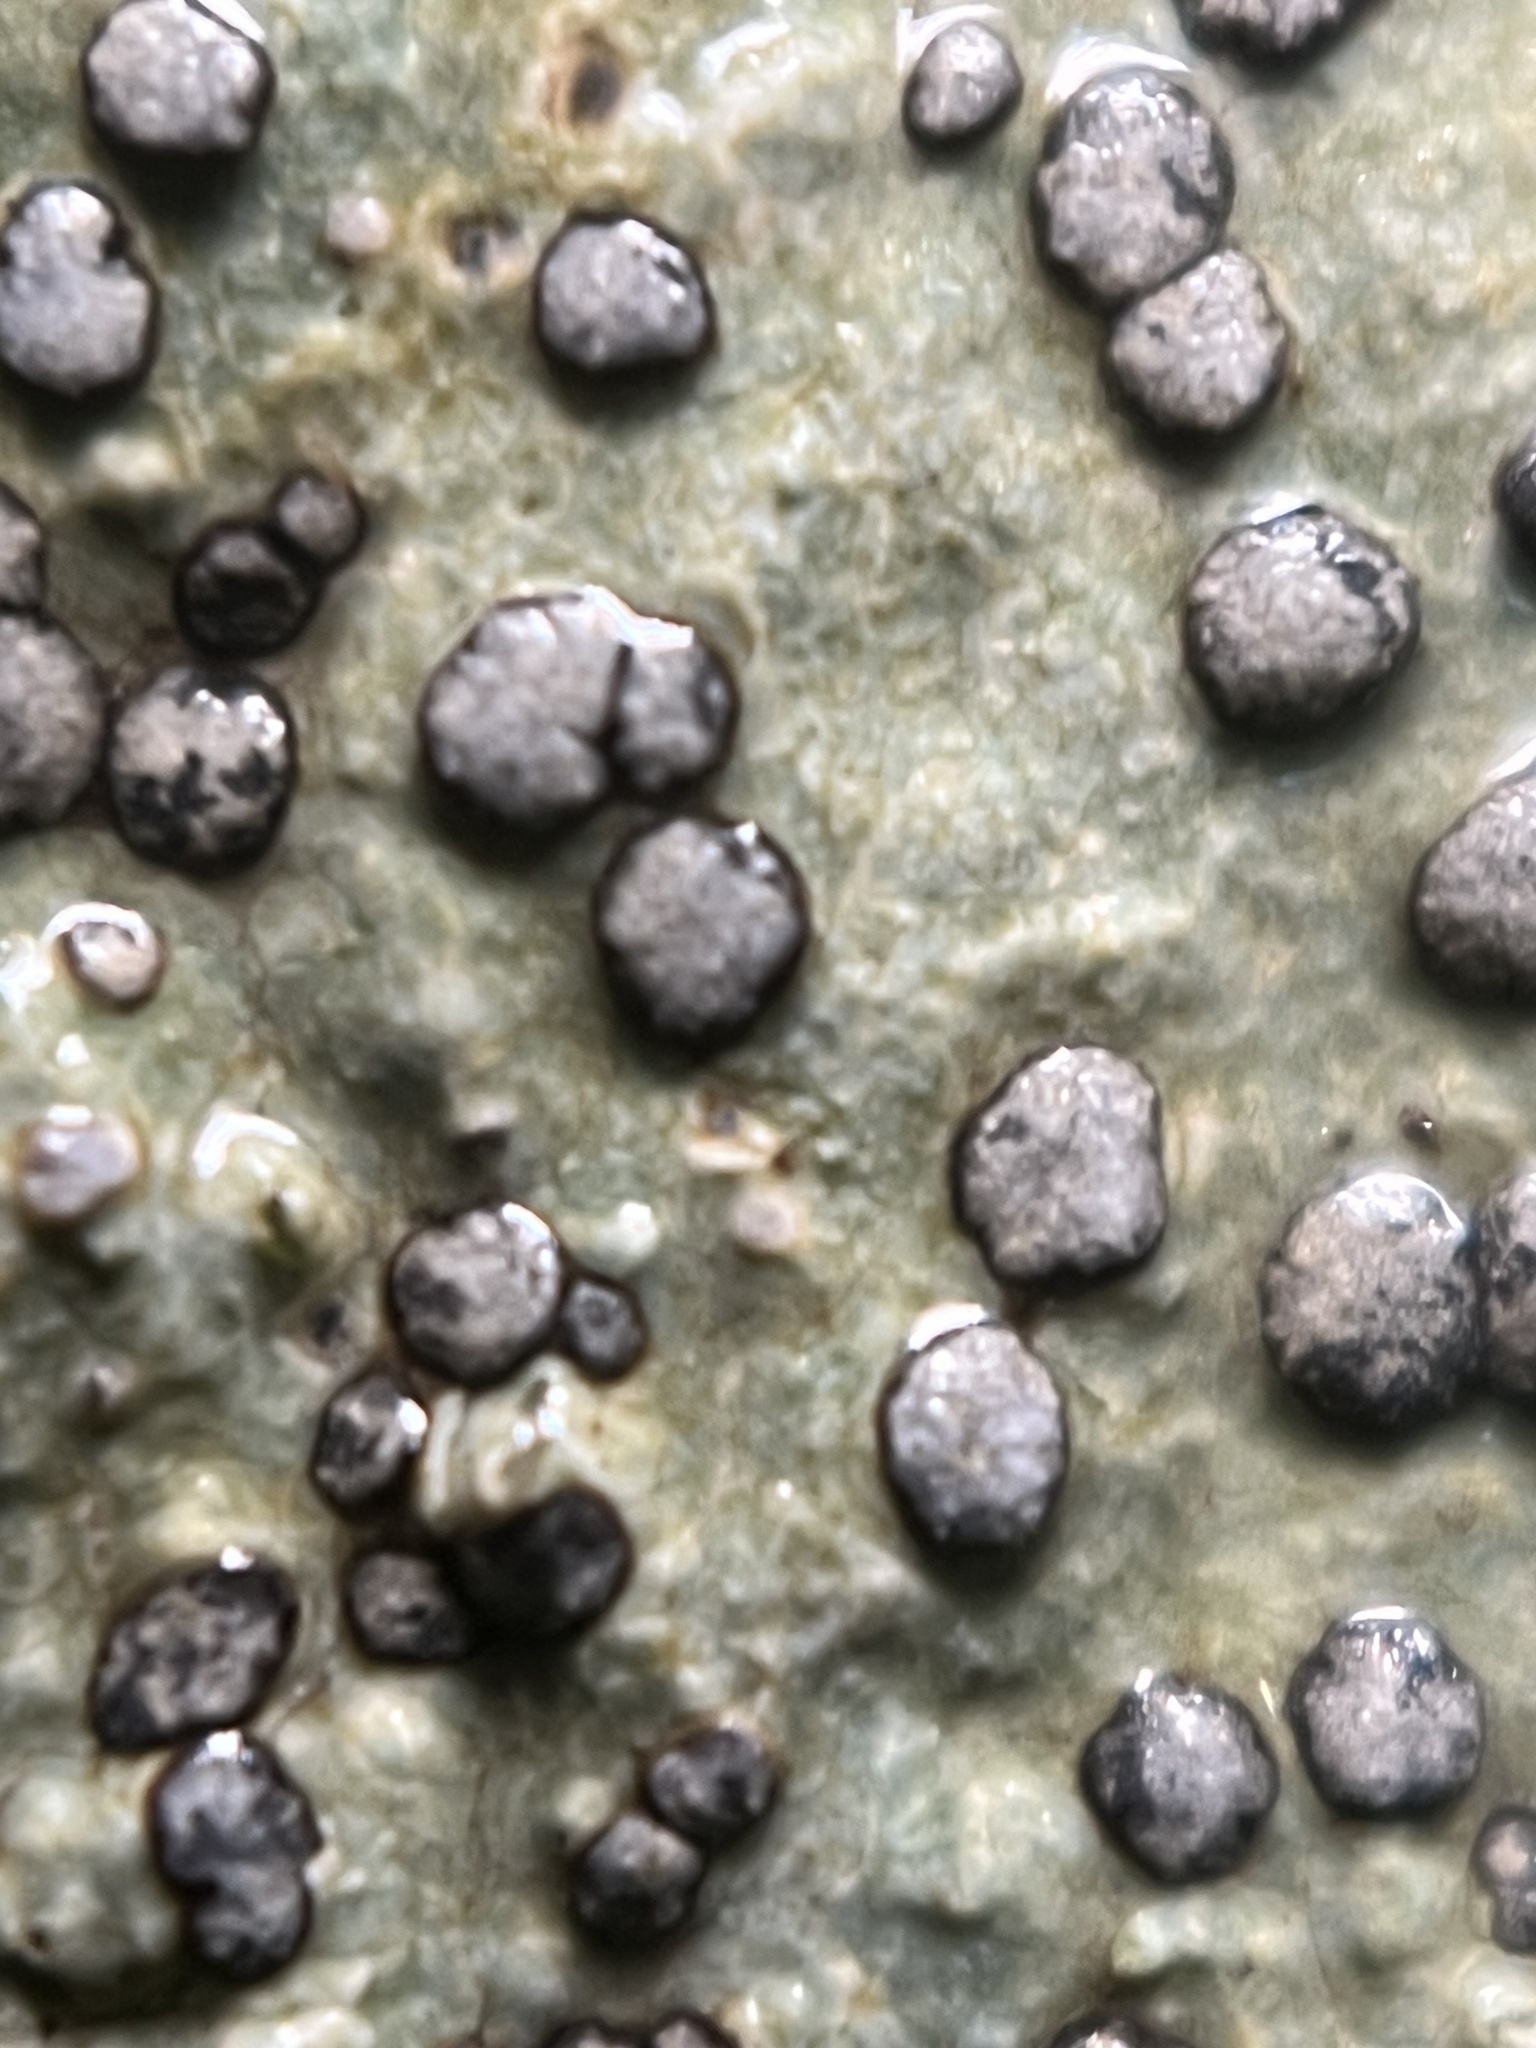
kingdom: Fungi
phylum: Ascomycota
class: Lecanoromycetes
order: Lecideales
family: Lecideaceae
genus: Porpidia
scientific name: Porpidia albocaerulescens
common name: Smokey-eyed boulder lichen
